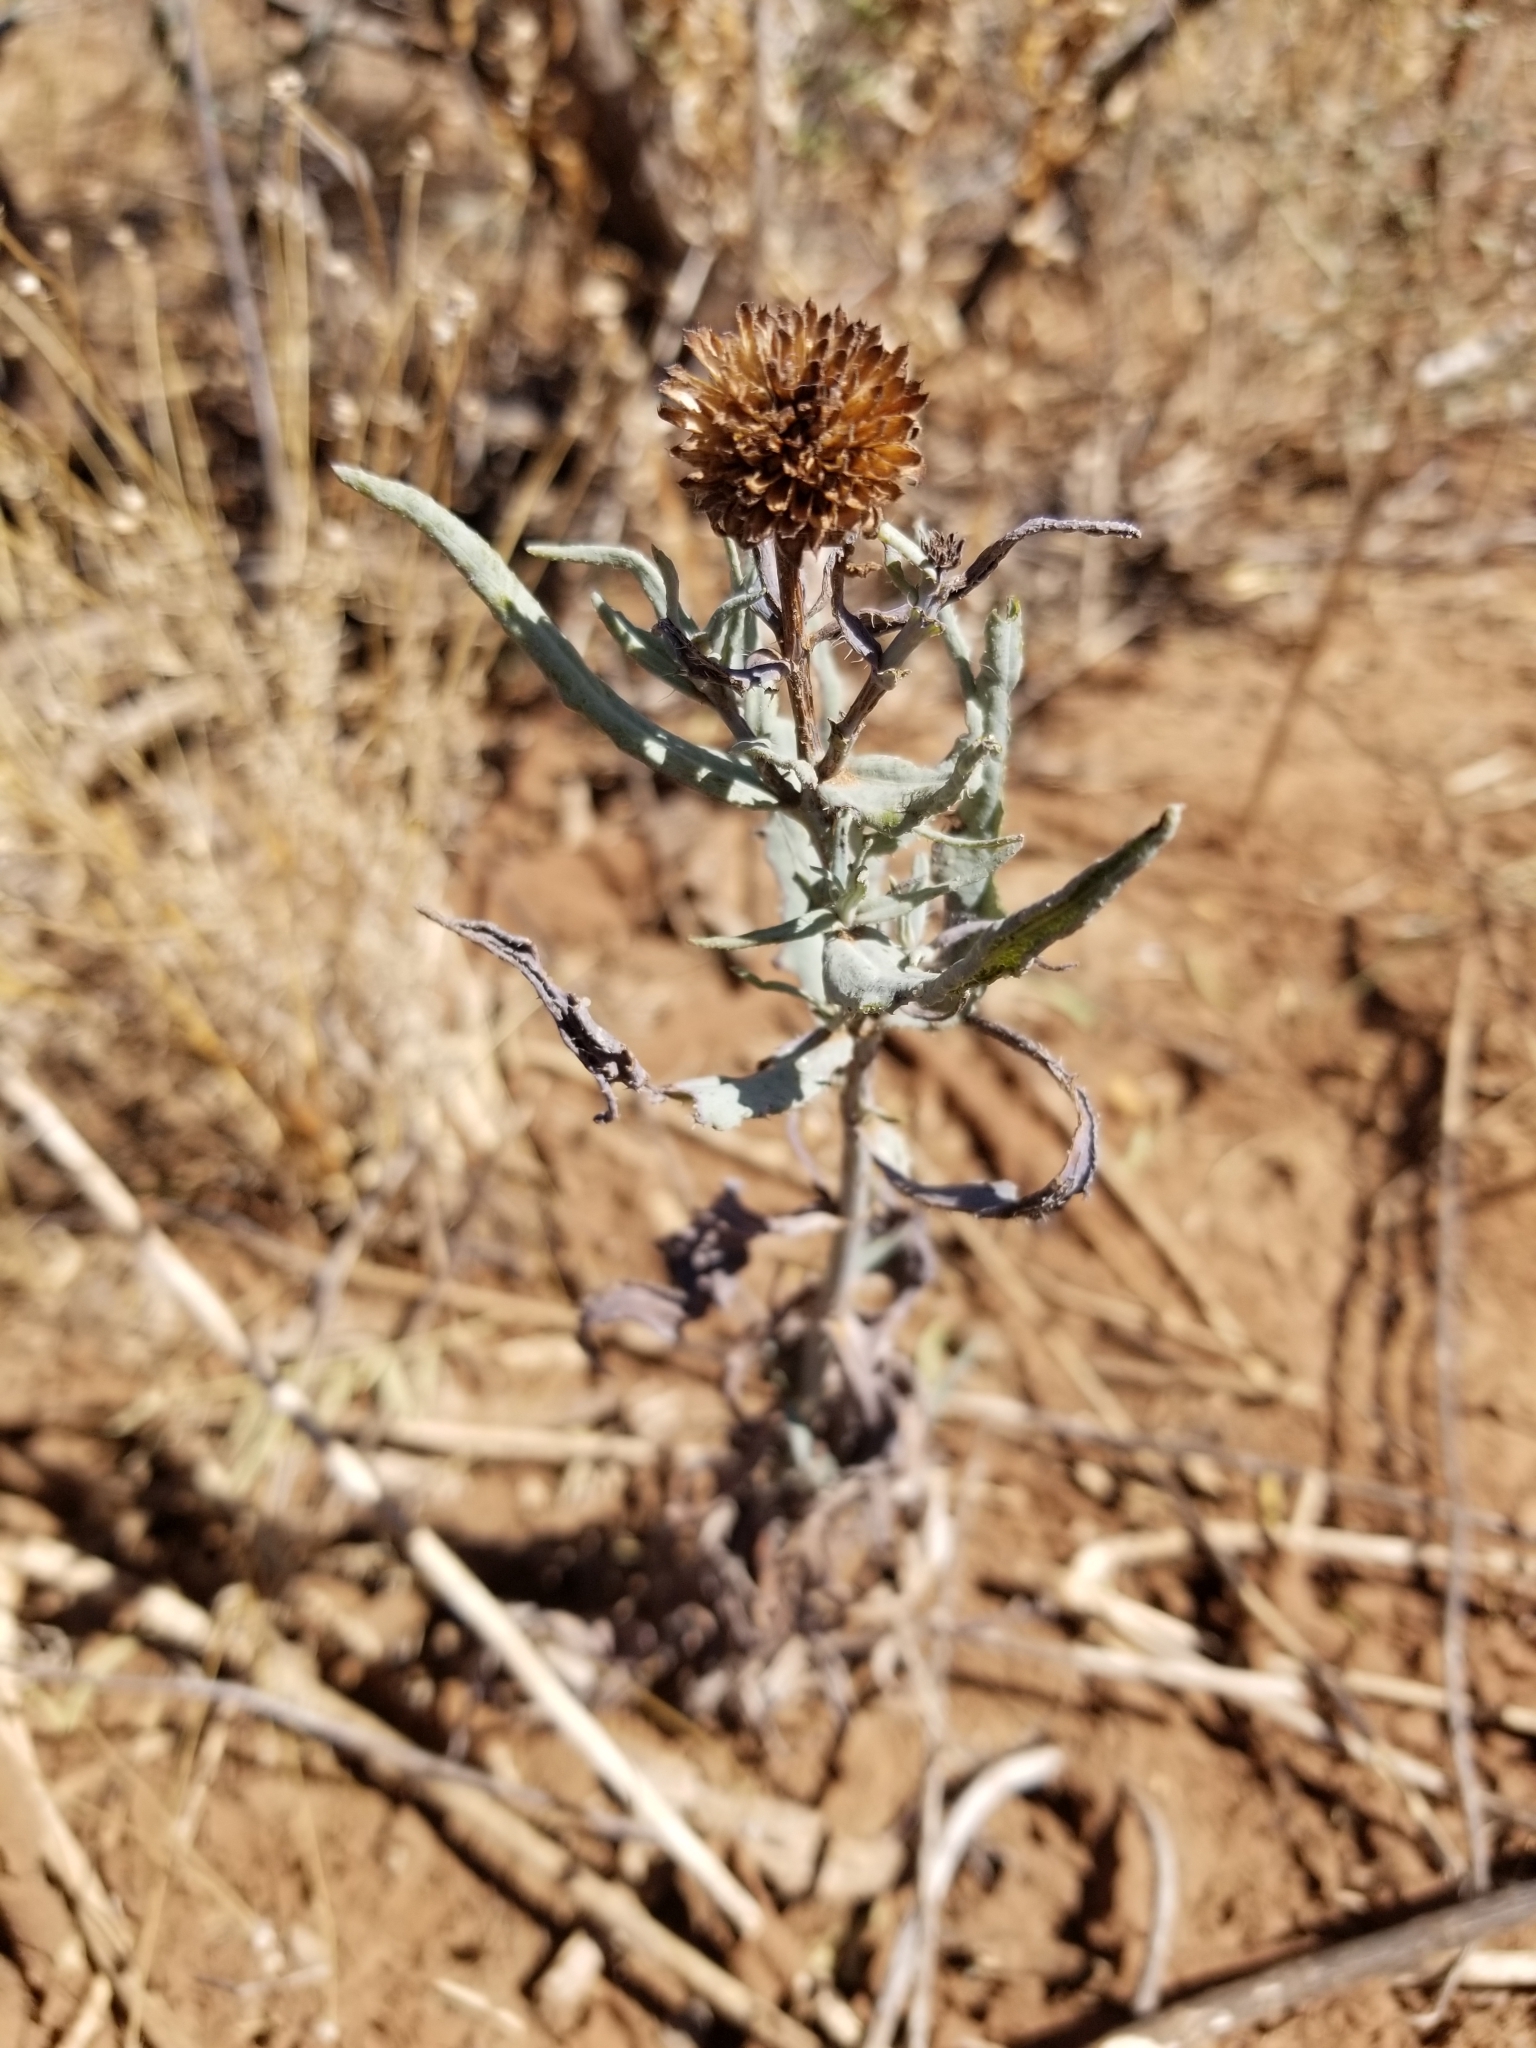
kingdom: Plantae
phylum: Tracheophyta
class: Magnoliopsida
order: Asterales
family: Asteraceae
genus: Helianthus
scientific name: Helianthus ciliaris
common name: Texas blueweed
